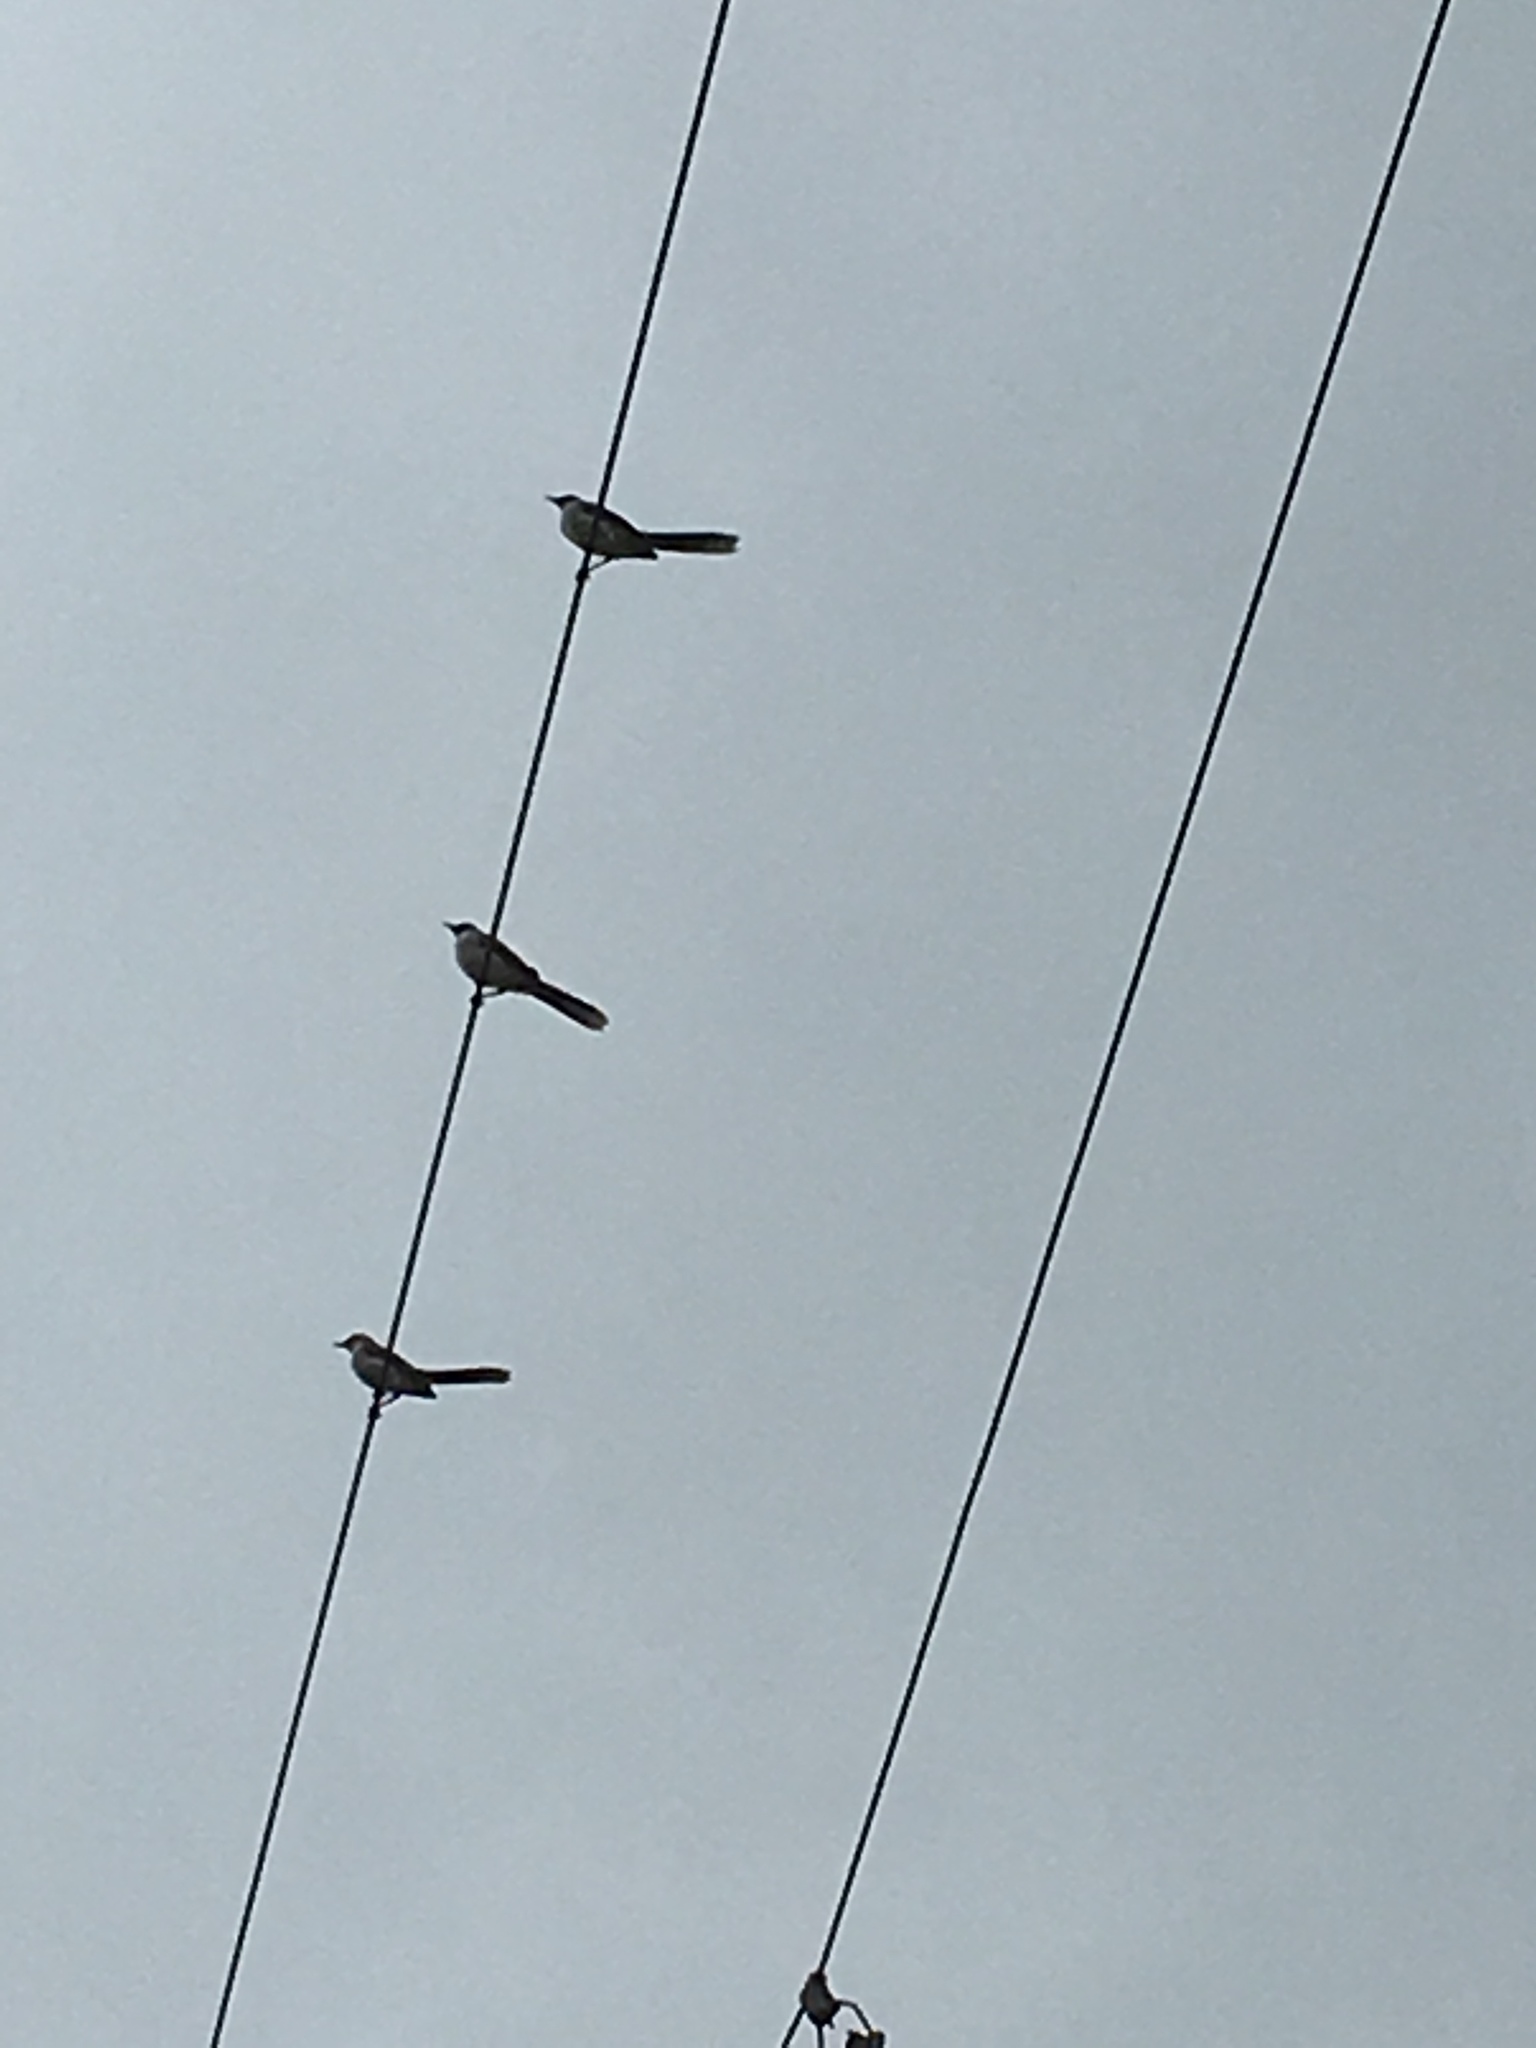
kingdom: Animalia
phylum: Chordata
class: Aves
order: Passeriformes
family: Mimidae
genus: Mimus
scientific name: Mimus gilvus
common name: Tropical mockingbird
